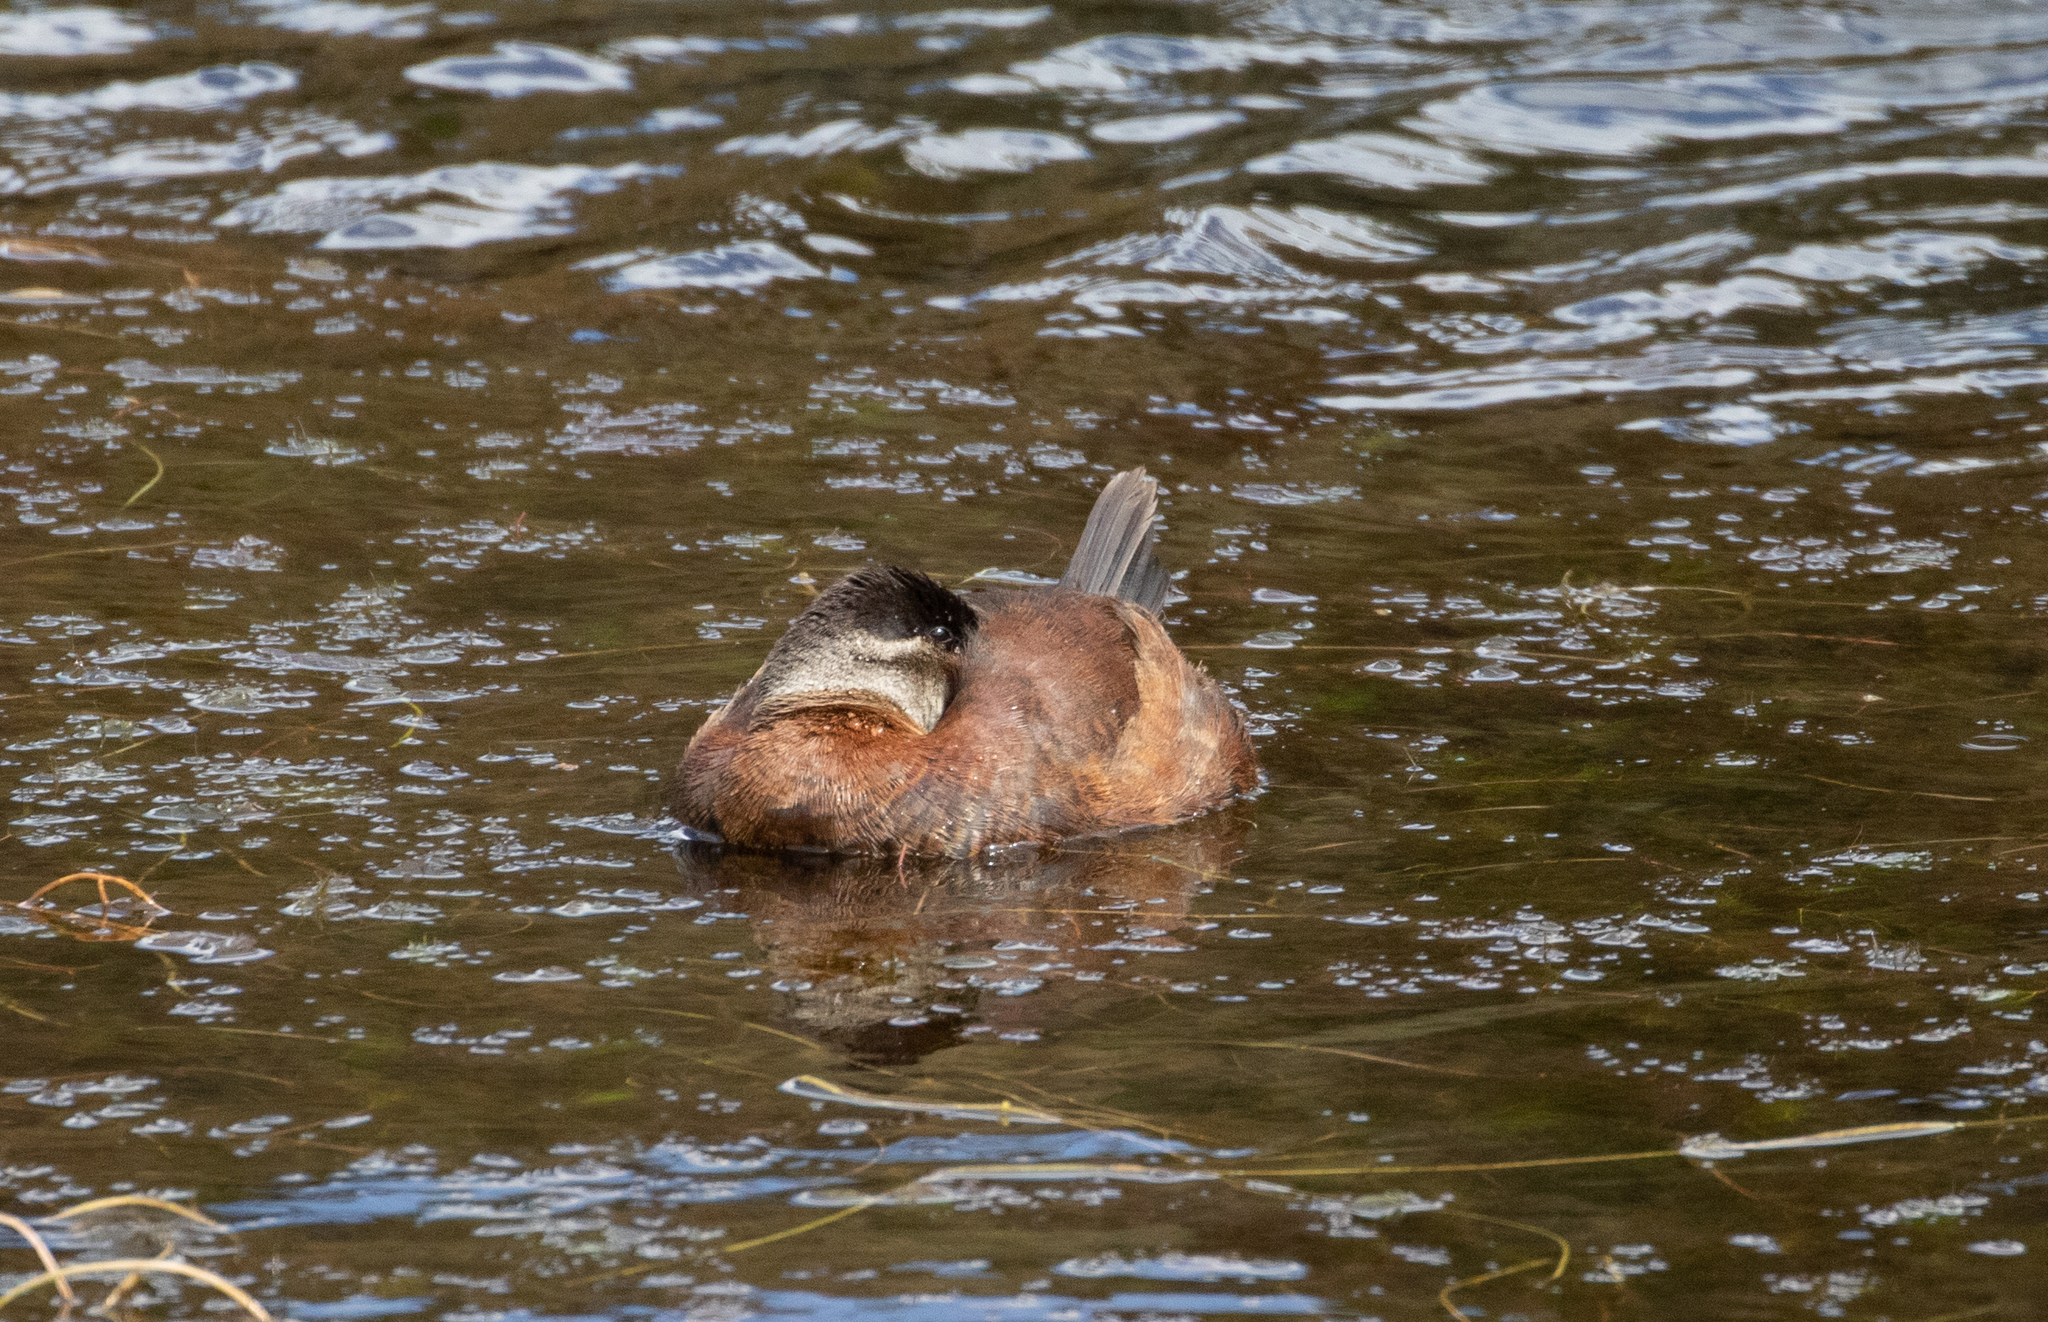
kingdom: Animalia
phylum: Chordata
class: Aves
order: Anseriformes
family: Anatidae
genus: Oxyura
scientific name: Oxyura ferruginea
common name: Andean duck
